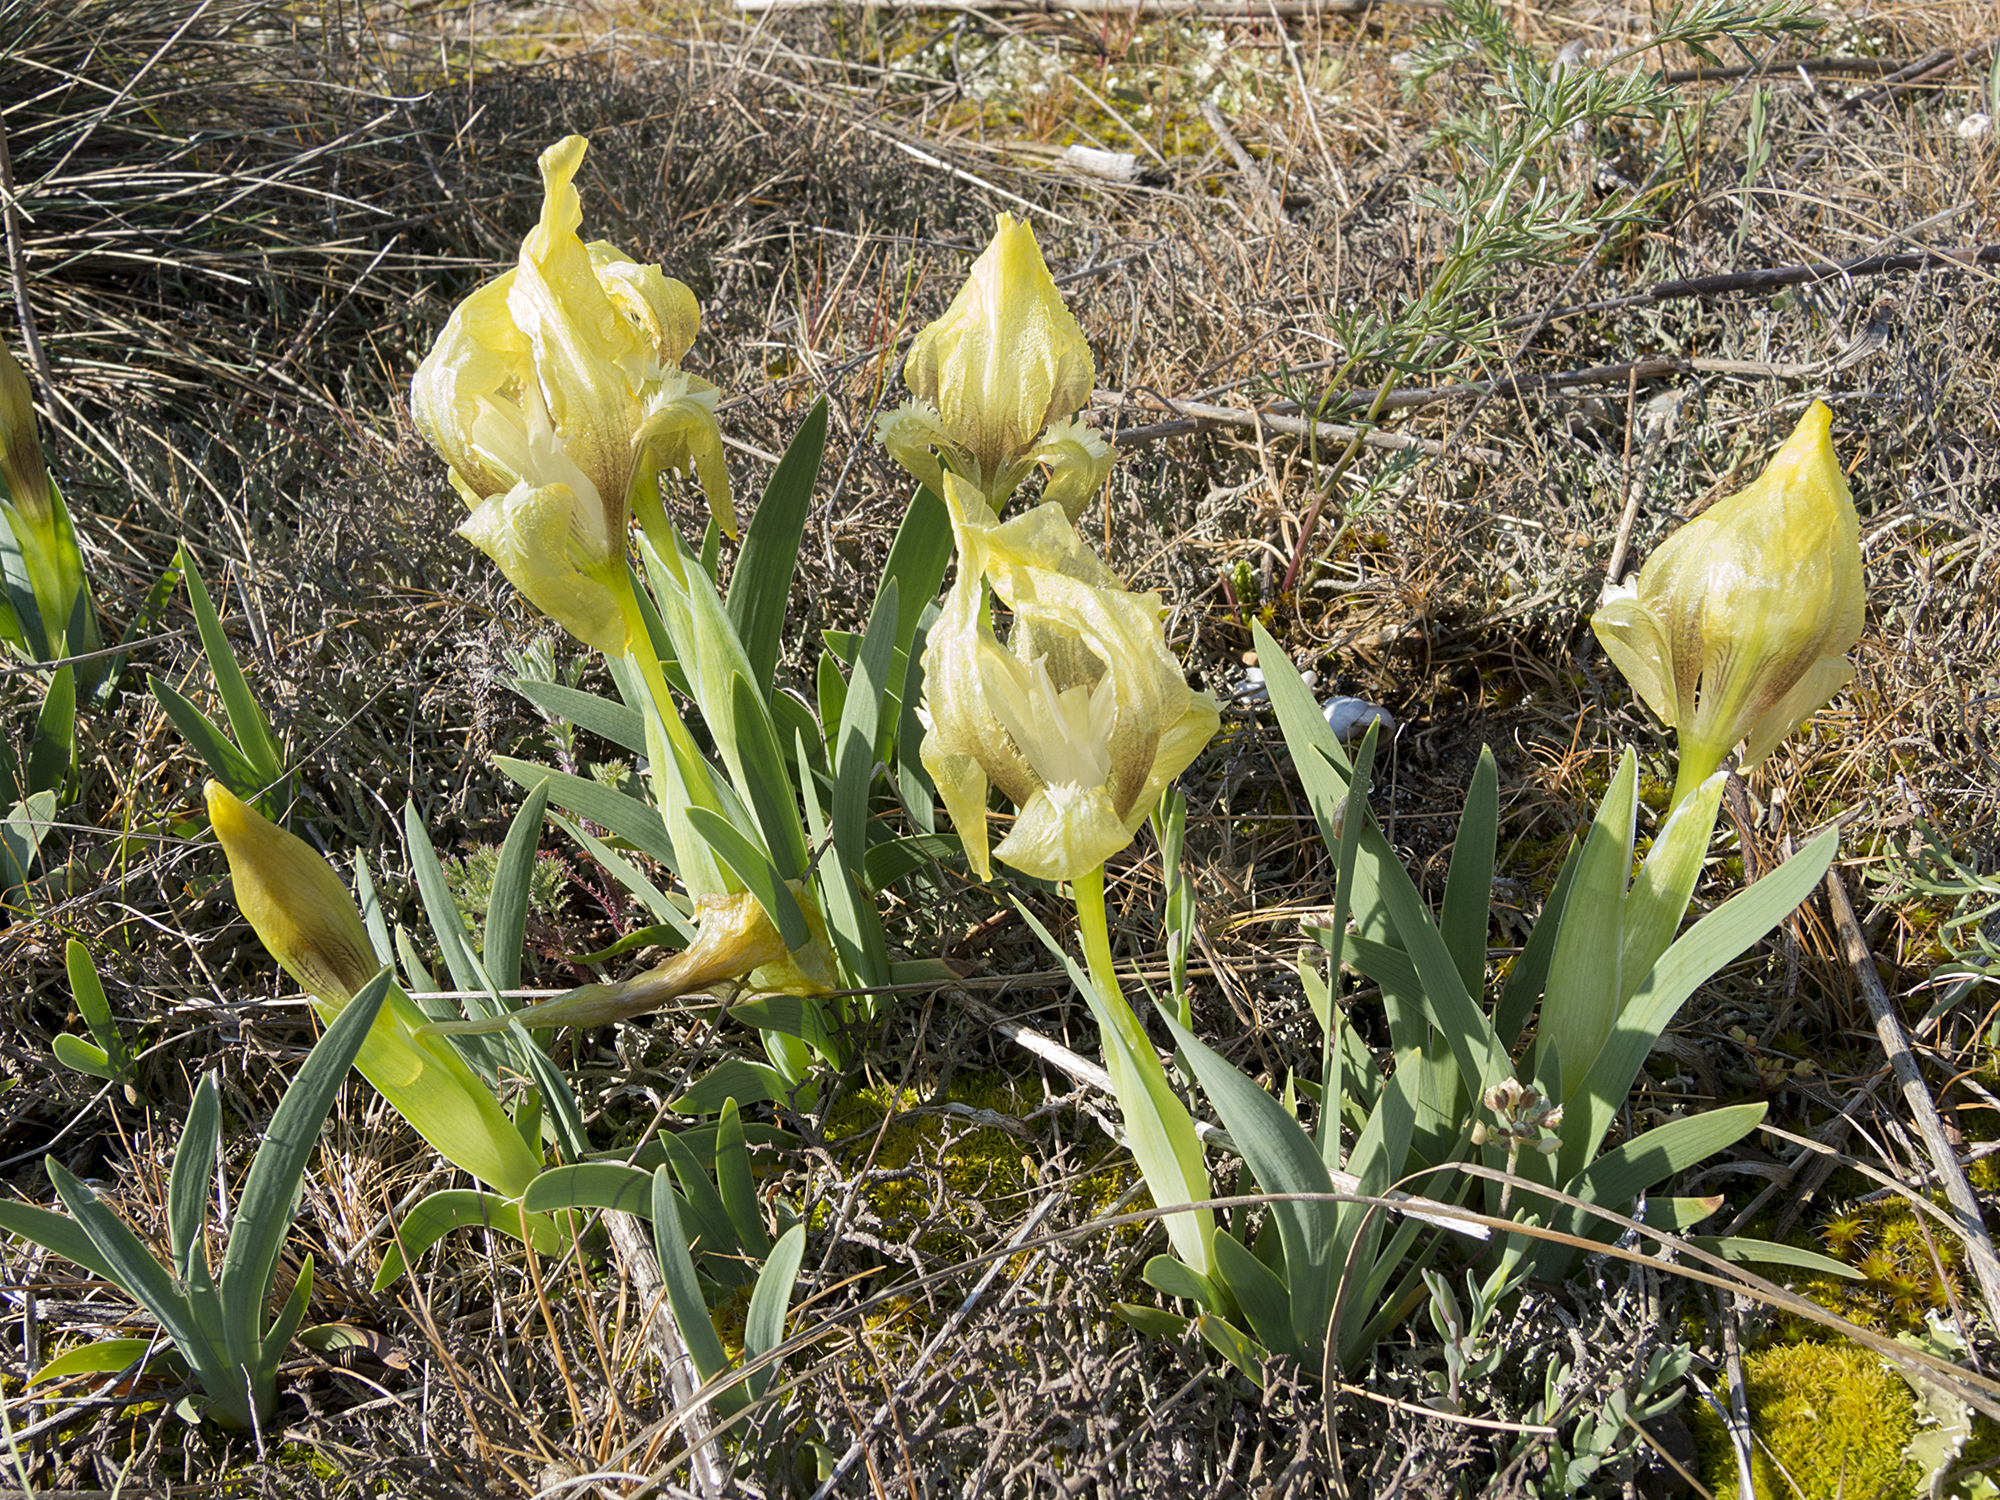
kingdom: Plantae
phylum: Tracheophyta
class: Liliopsida
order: Asparagales
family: Iridaceae
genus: Iris
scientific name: Iris suaveolens
